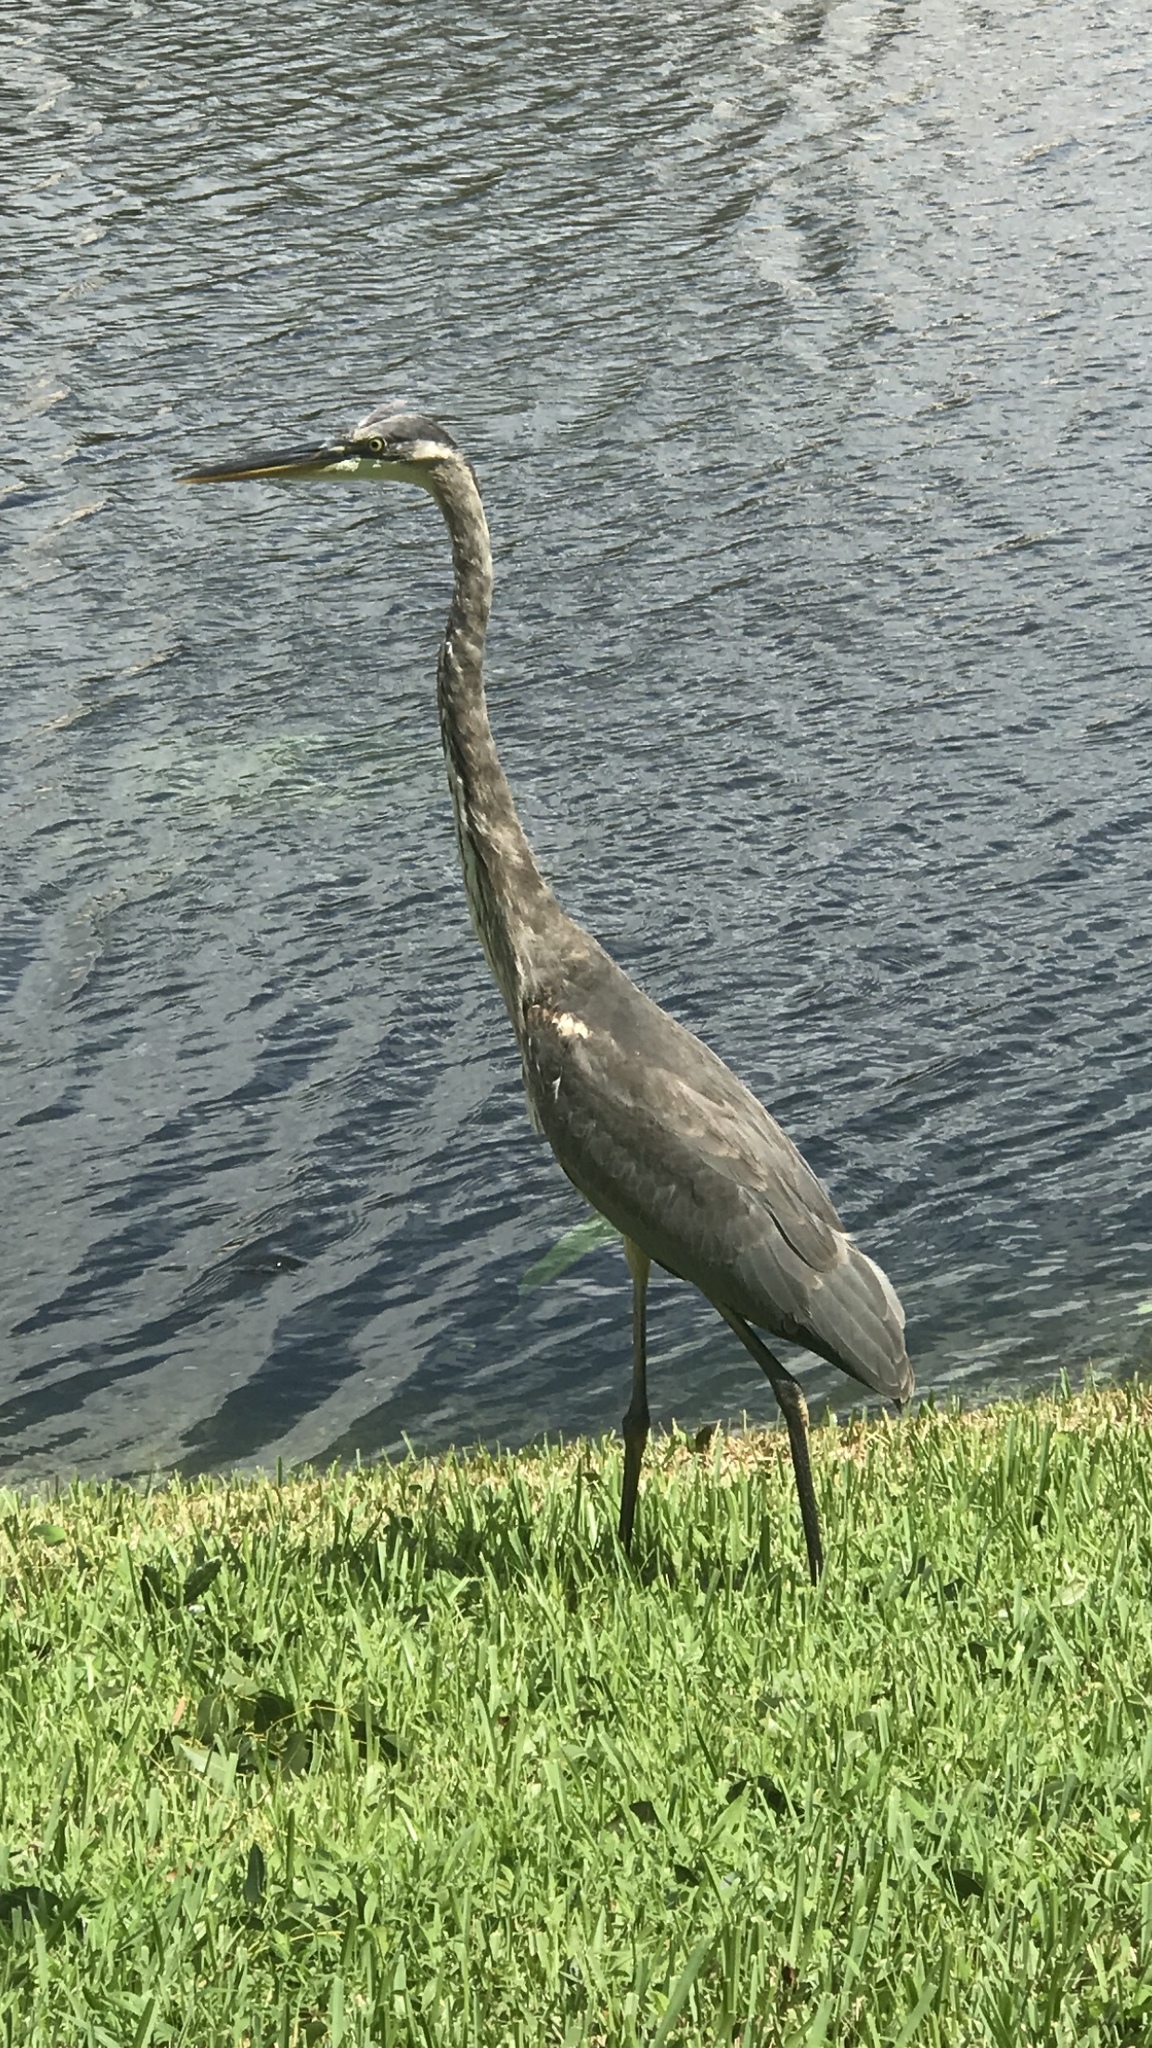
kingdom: Animalia
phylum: Chordata
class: Aves
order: Pelecaniformes
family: Ardeidae
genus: Ardea
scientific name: Ardea herodias
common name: Great blue heron
